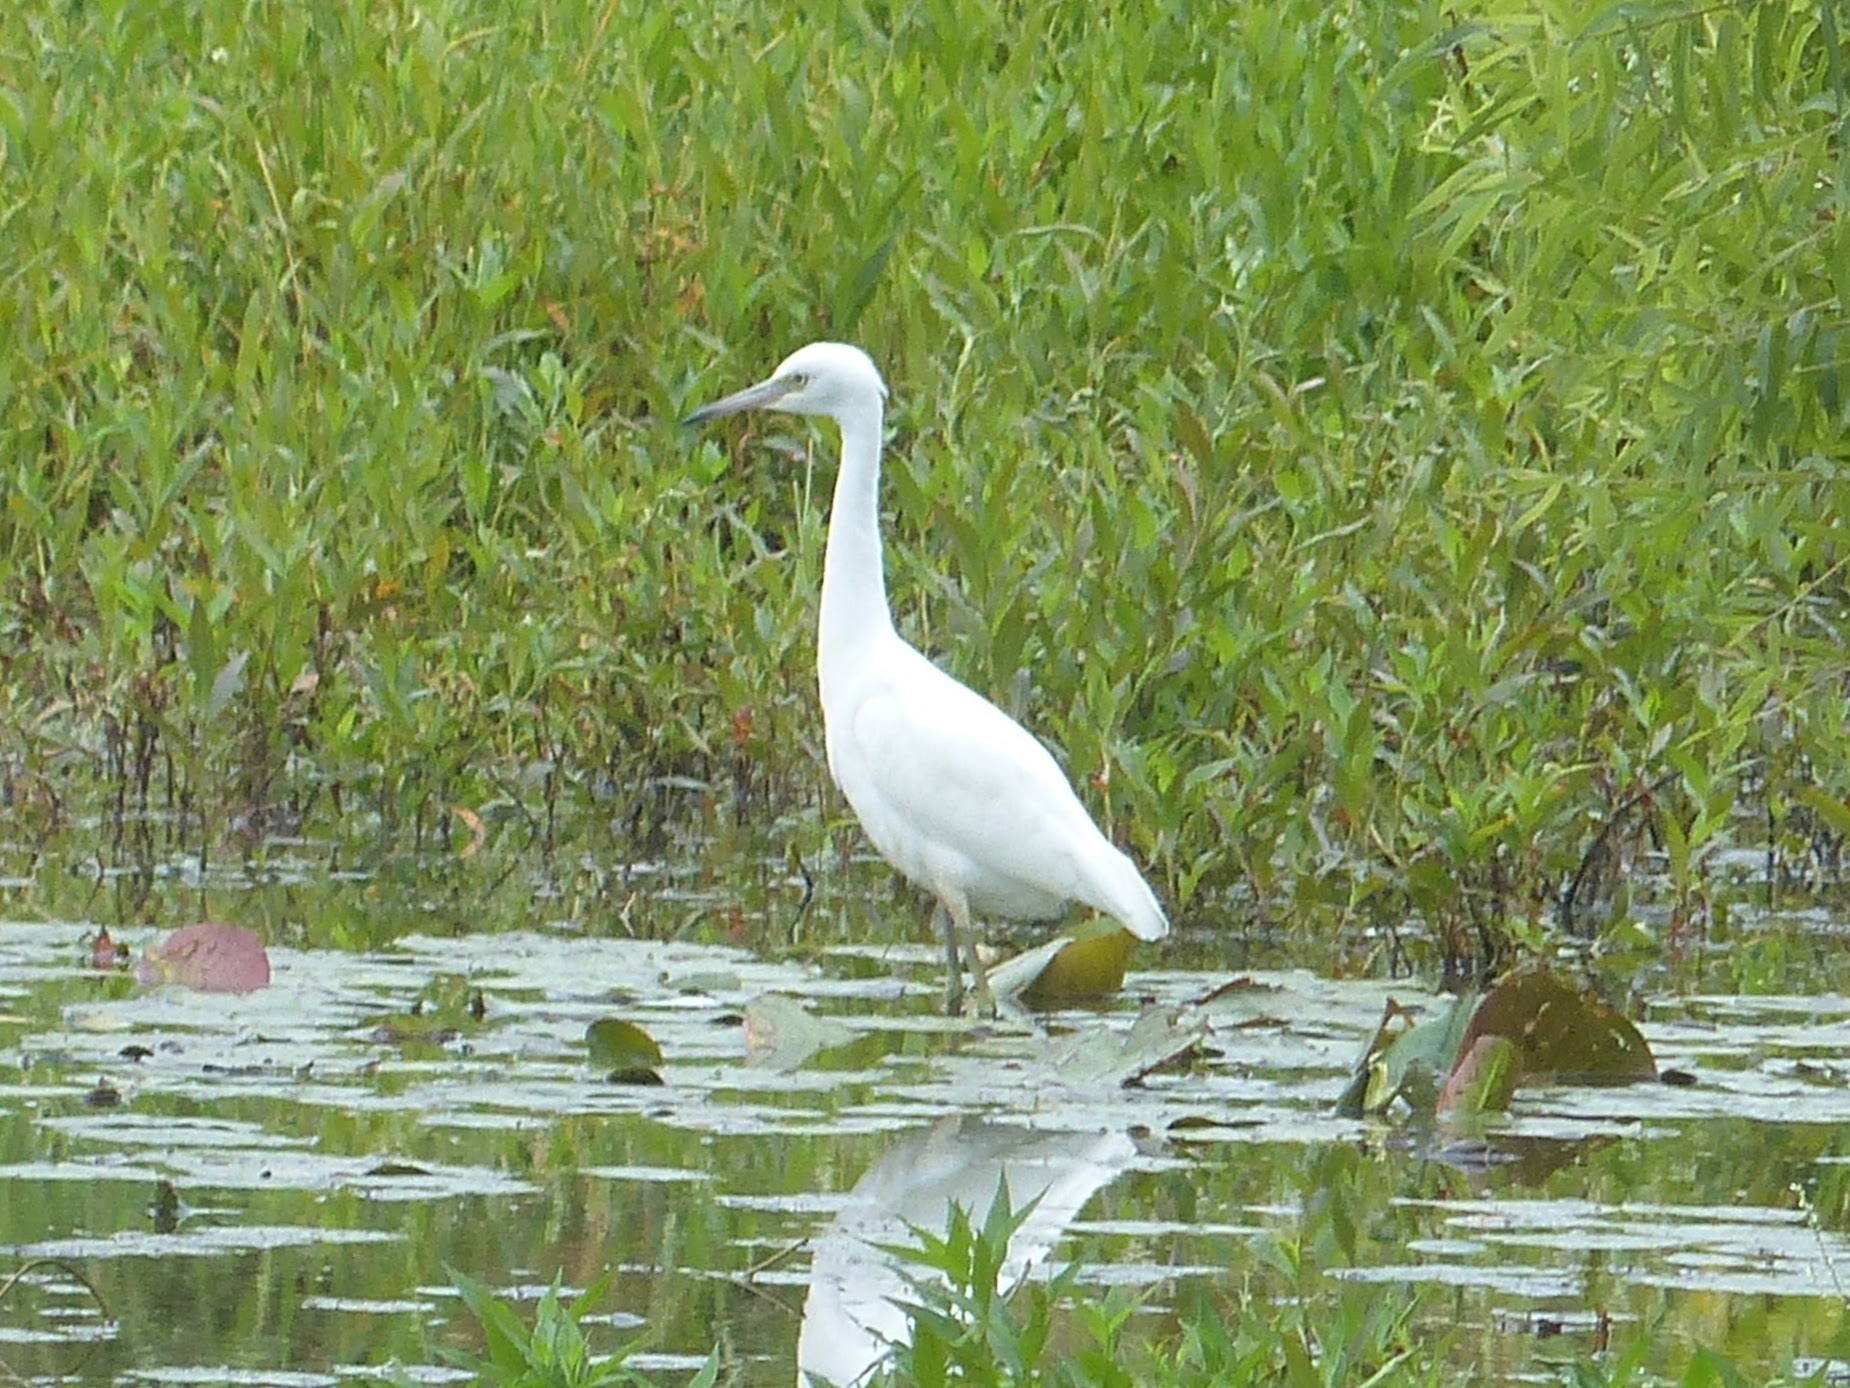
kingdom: Animalia
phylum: Chordata
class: Aves
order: Pelecaniformes
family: Ardeidae
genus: Egretta
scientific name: Egretta caerulea
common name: Little blue heron
